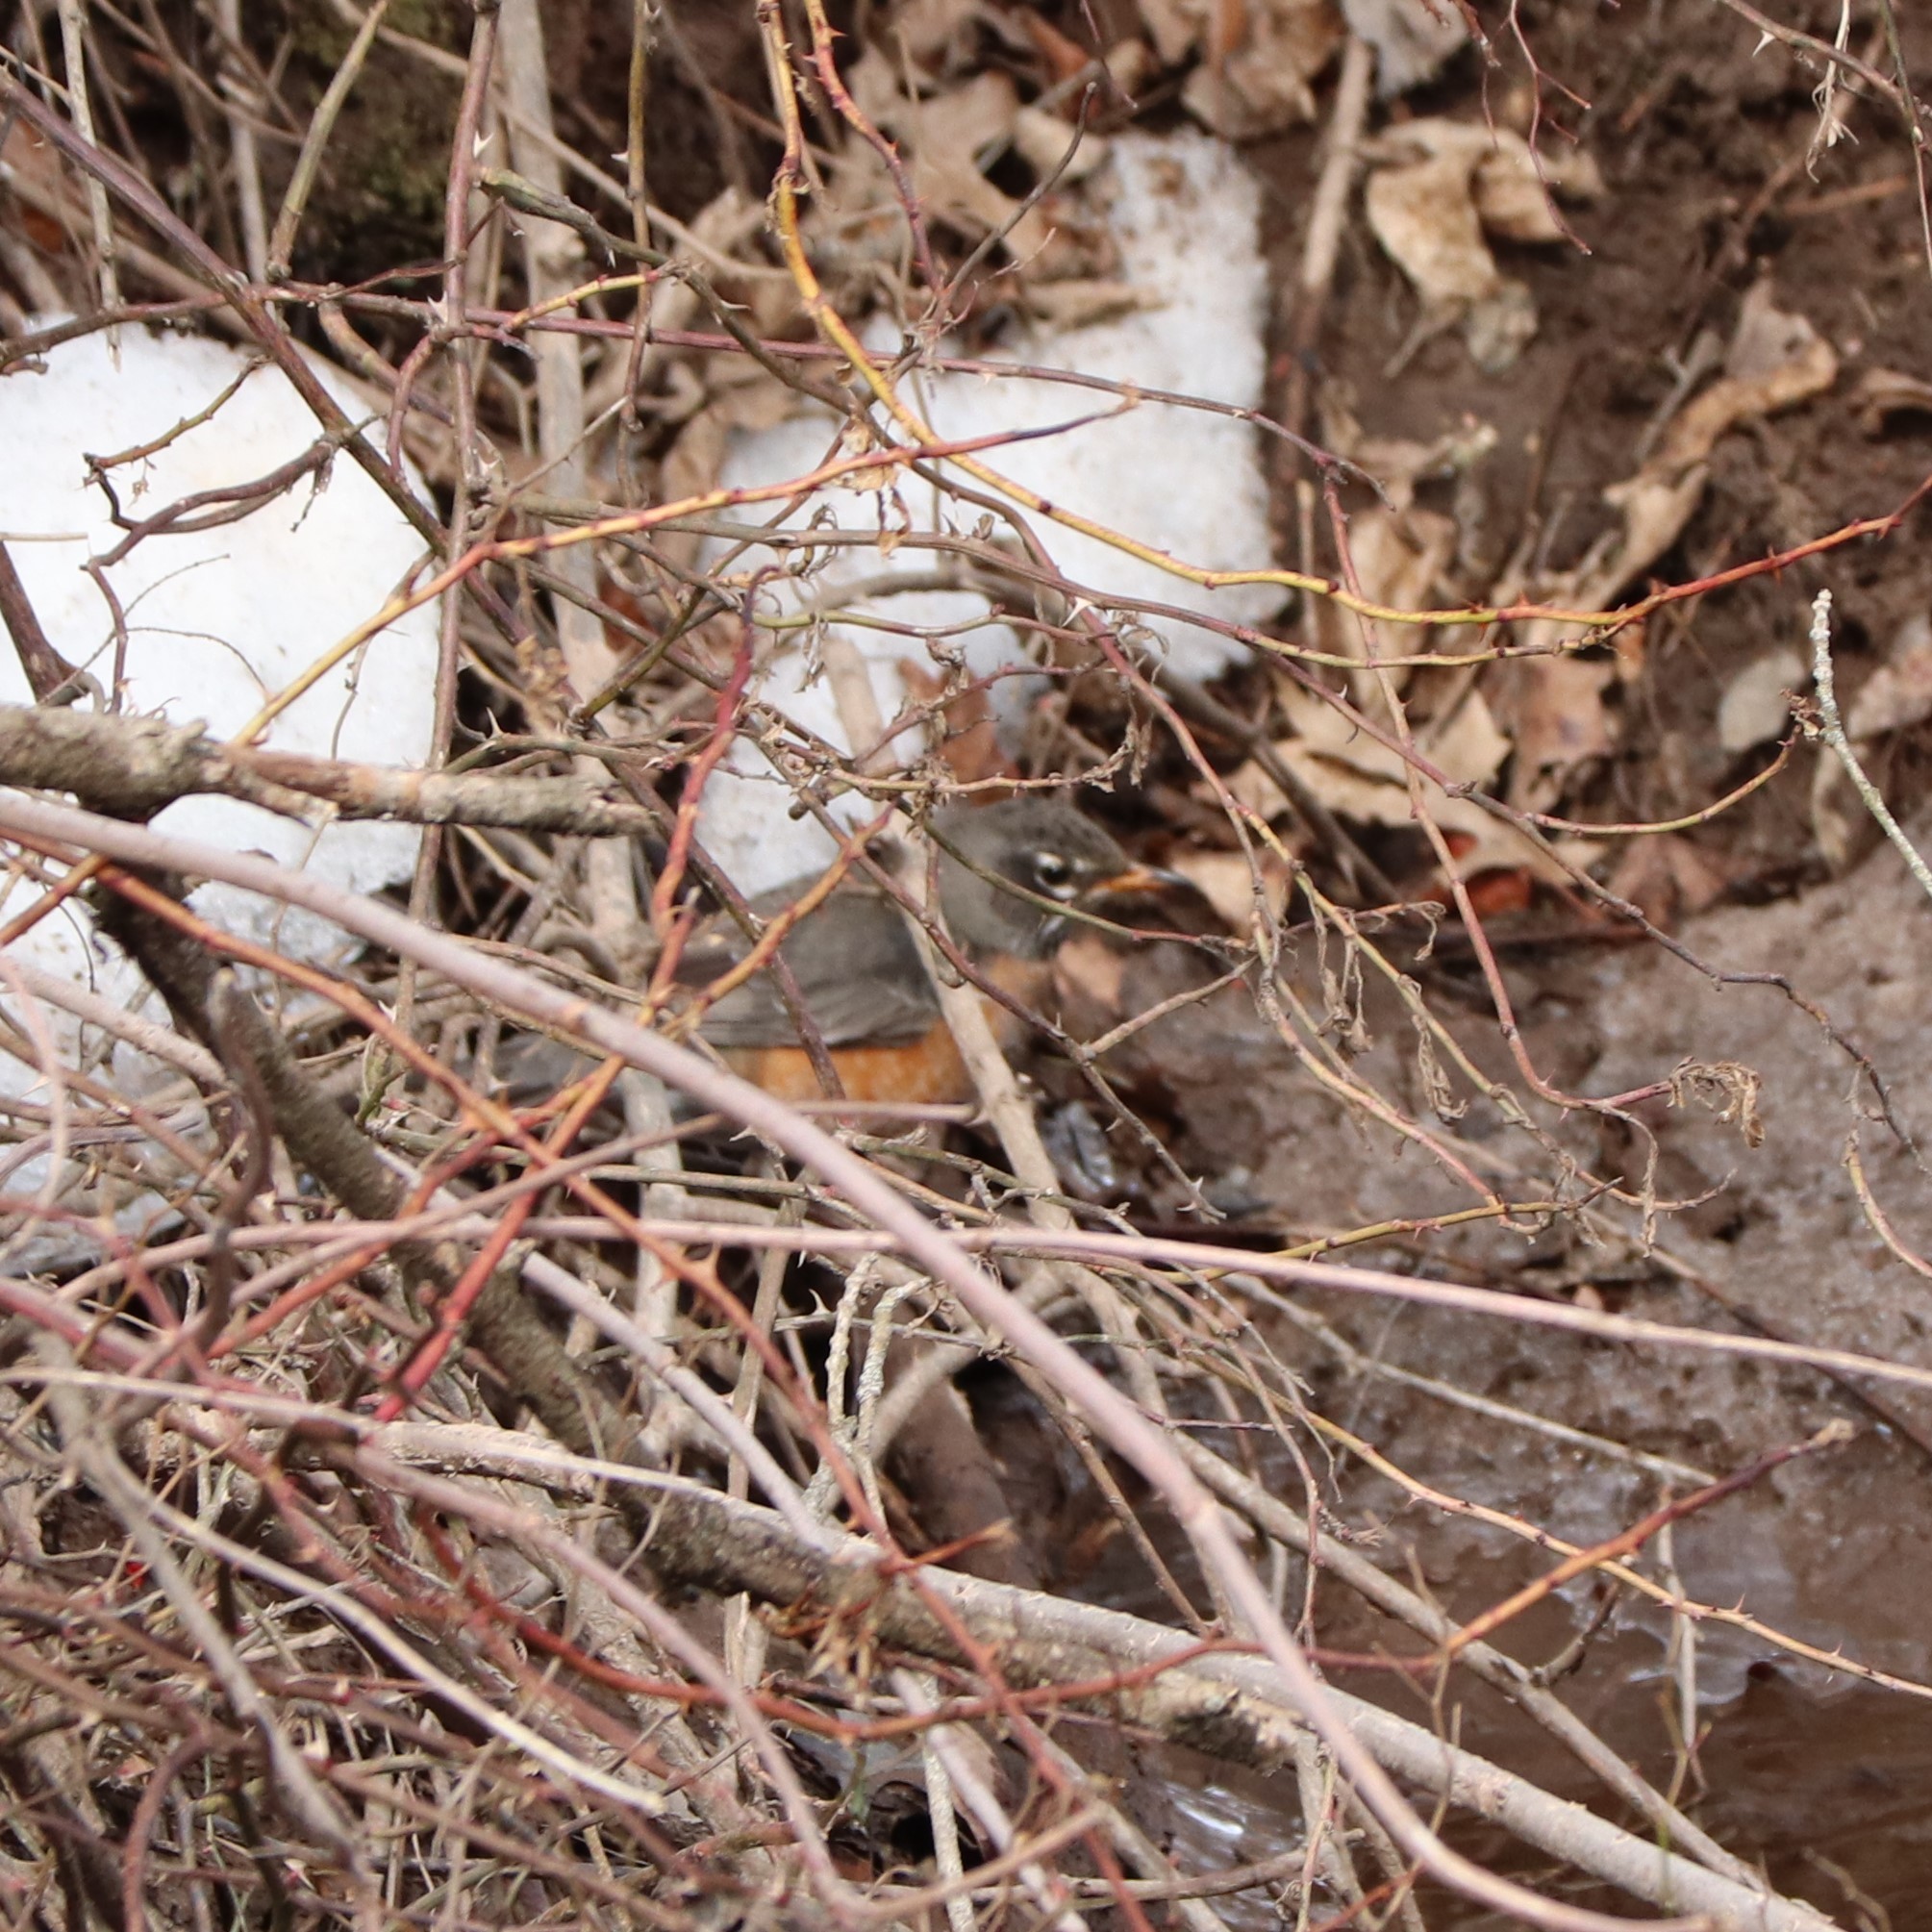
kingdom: Animalia
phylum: Chordata
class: Aves
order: Passeriformes
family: Turdidae
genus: Turdus
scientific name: Turdus migratorius
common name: American robin
